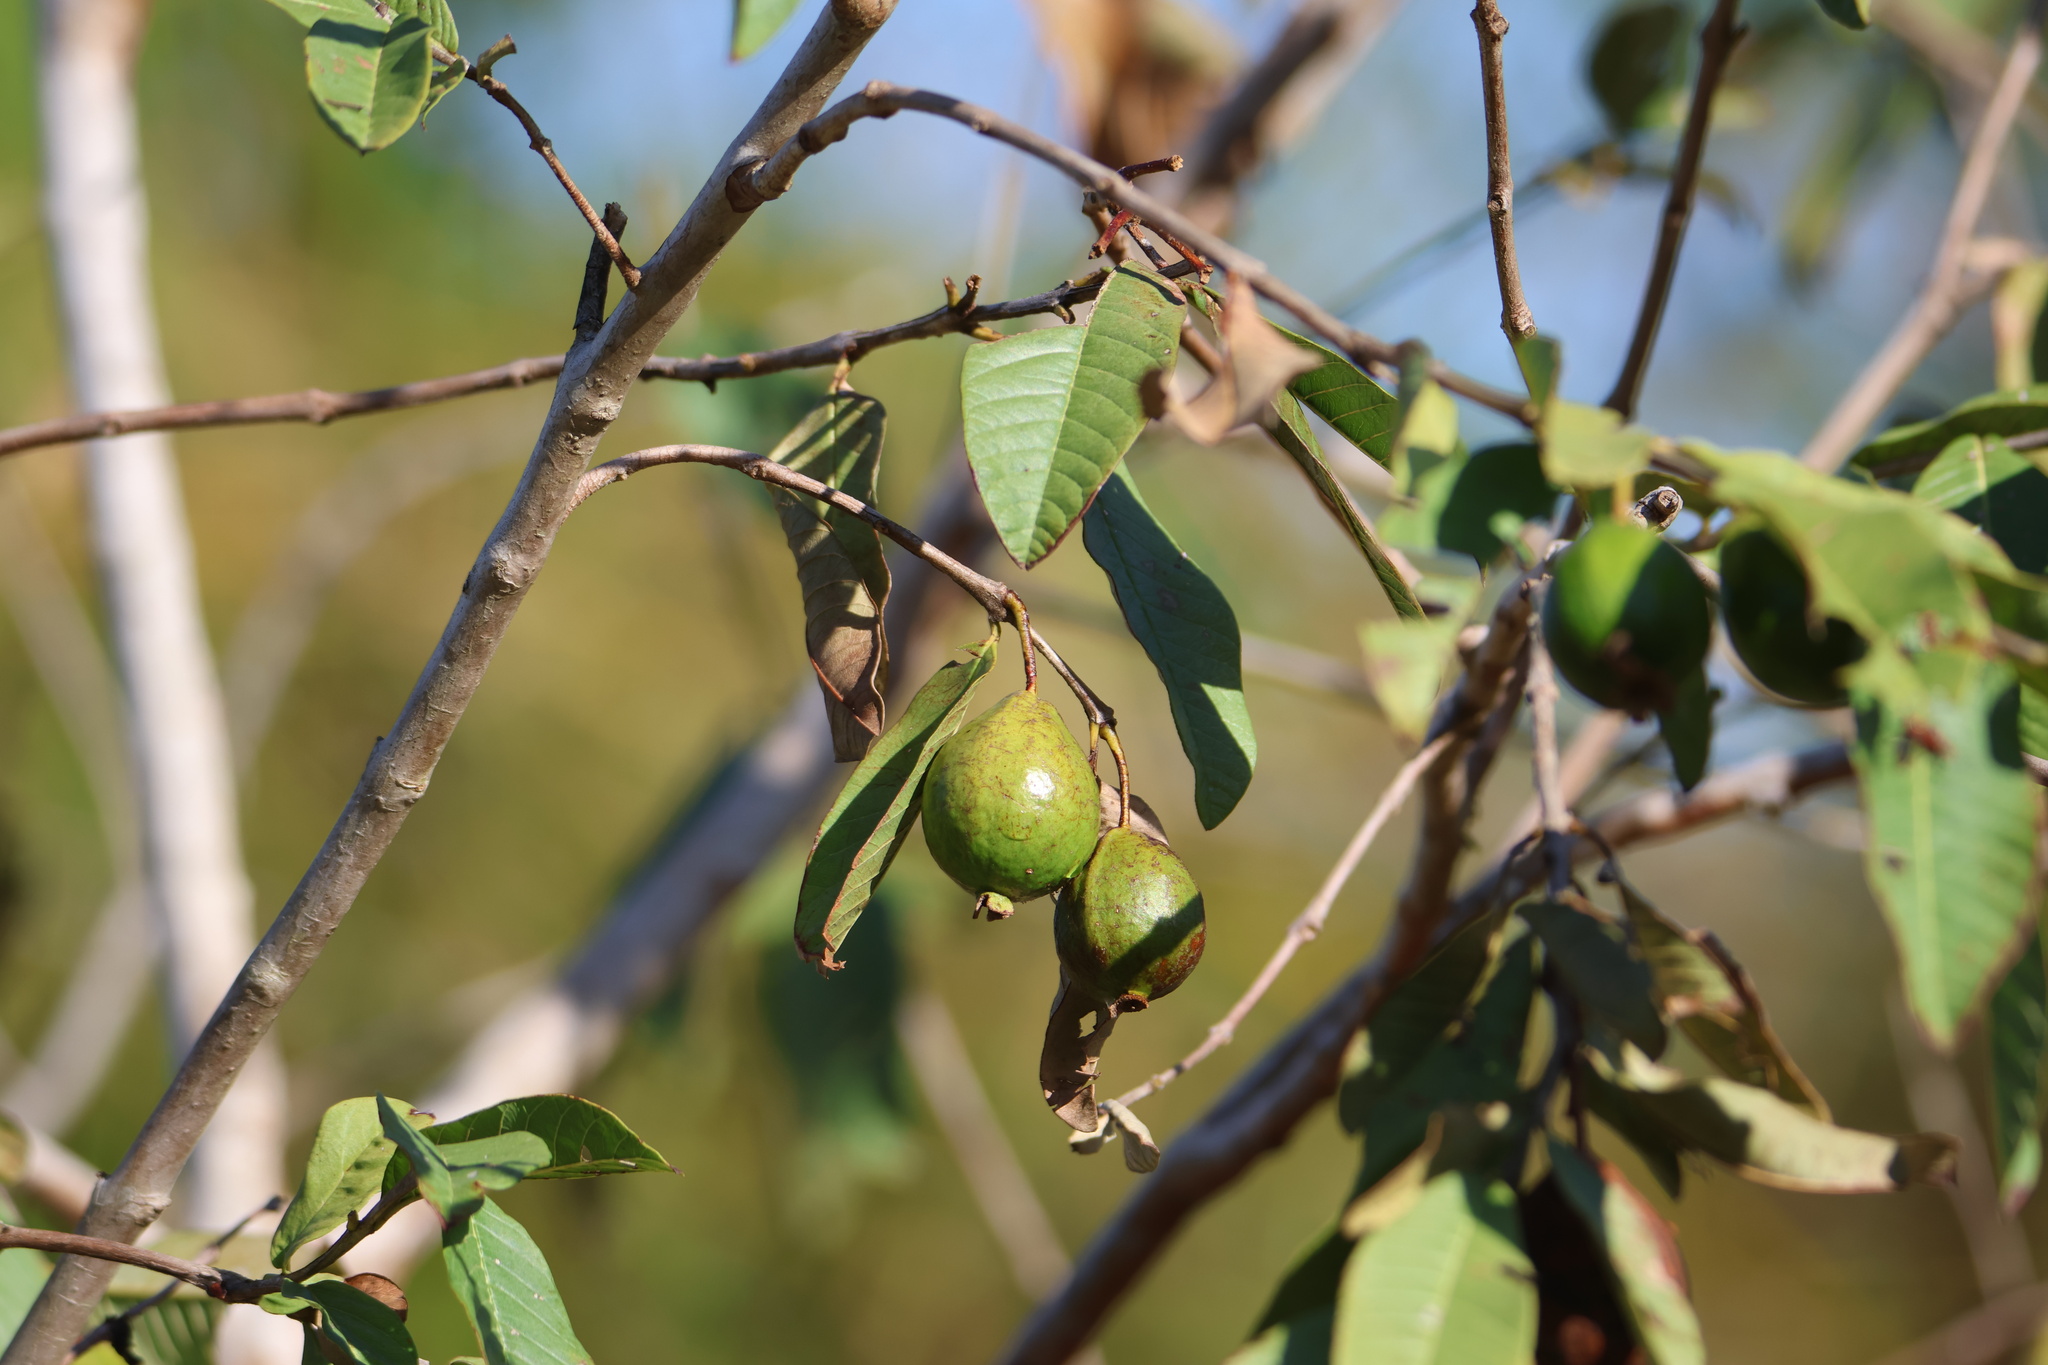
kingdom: Plantae
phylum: Tracheophyta
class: Magnoliopsida
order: Myrtales
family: Myrtaceae
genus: Psidium
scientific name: Psidium guajava
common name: Guava
